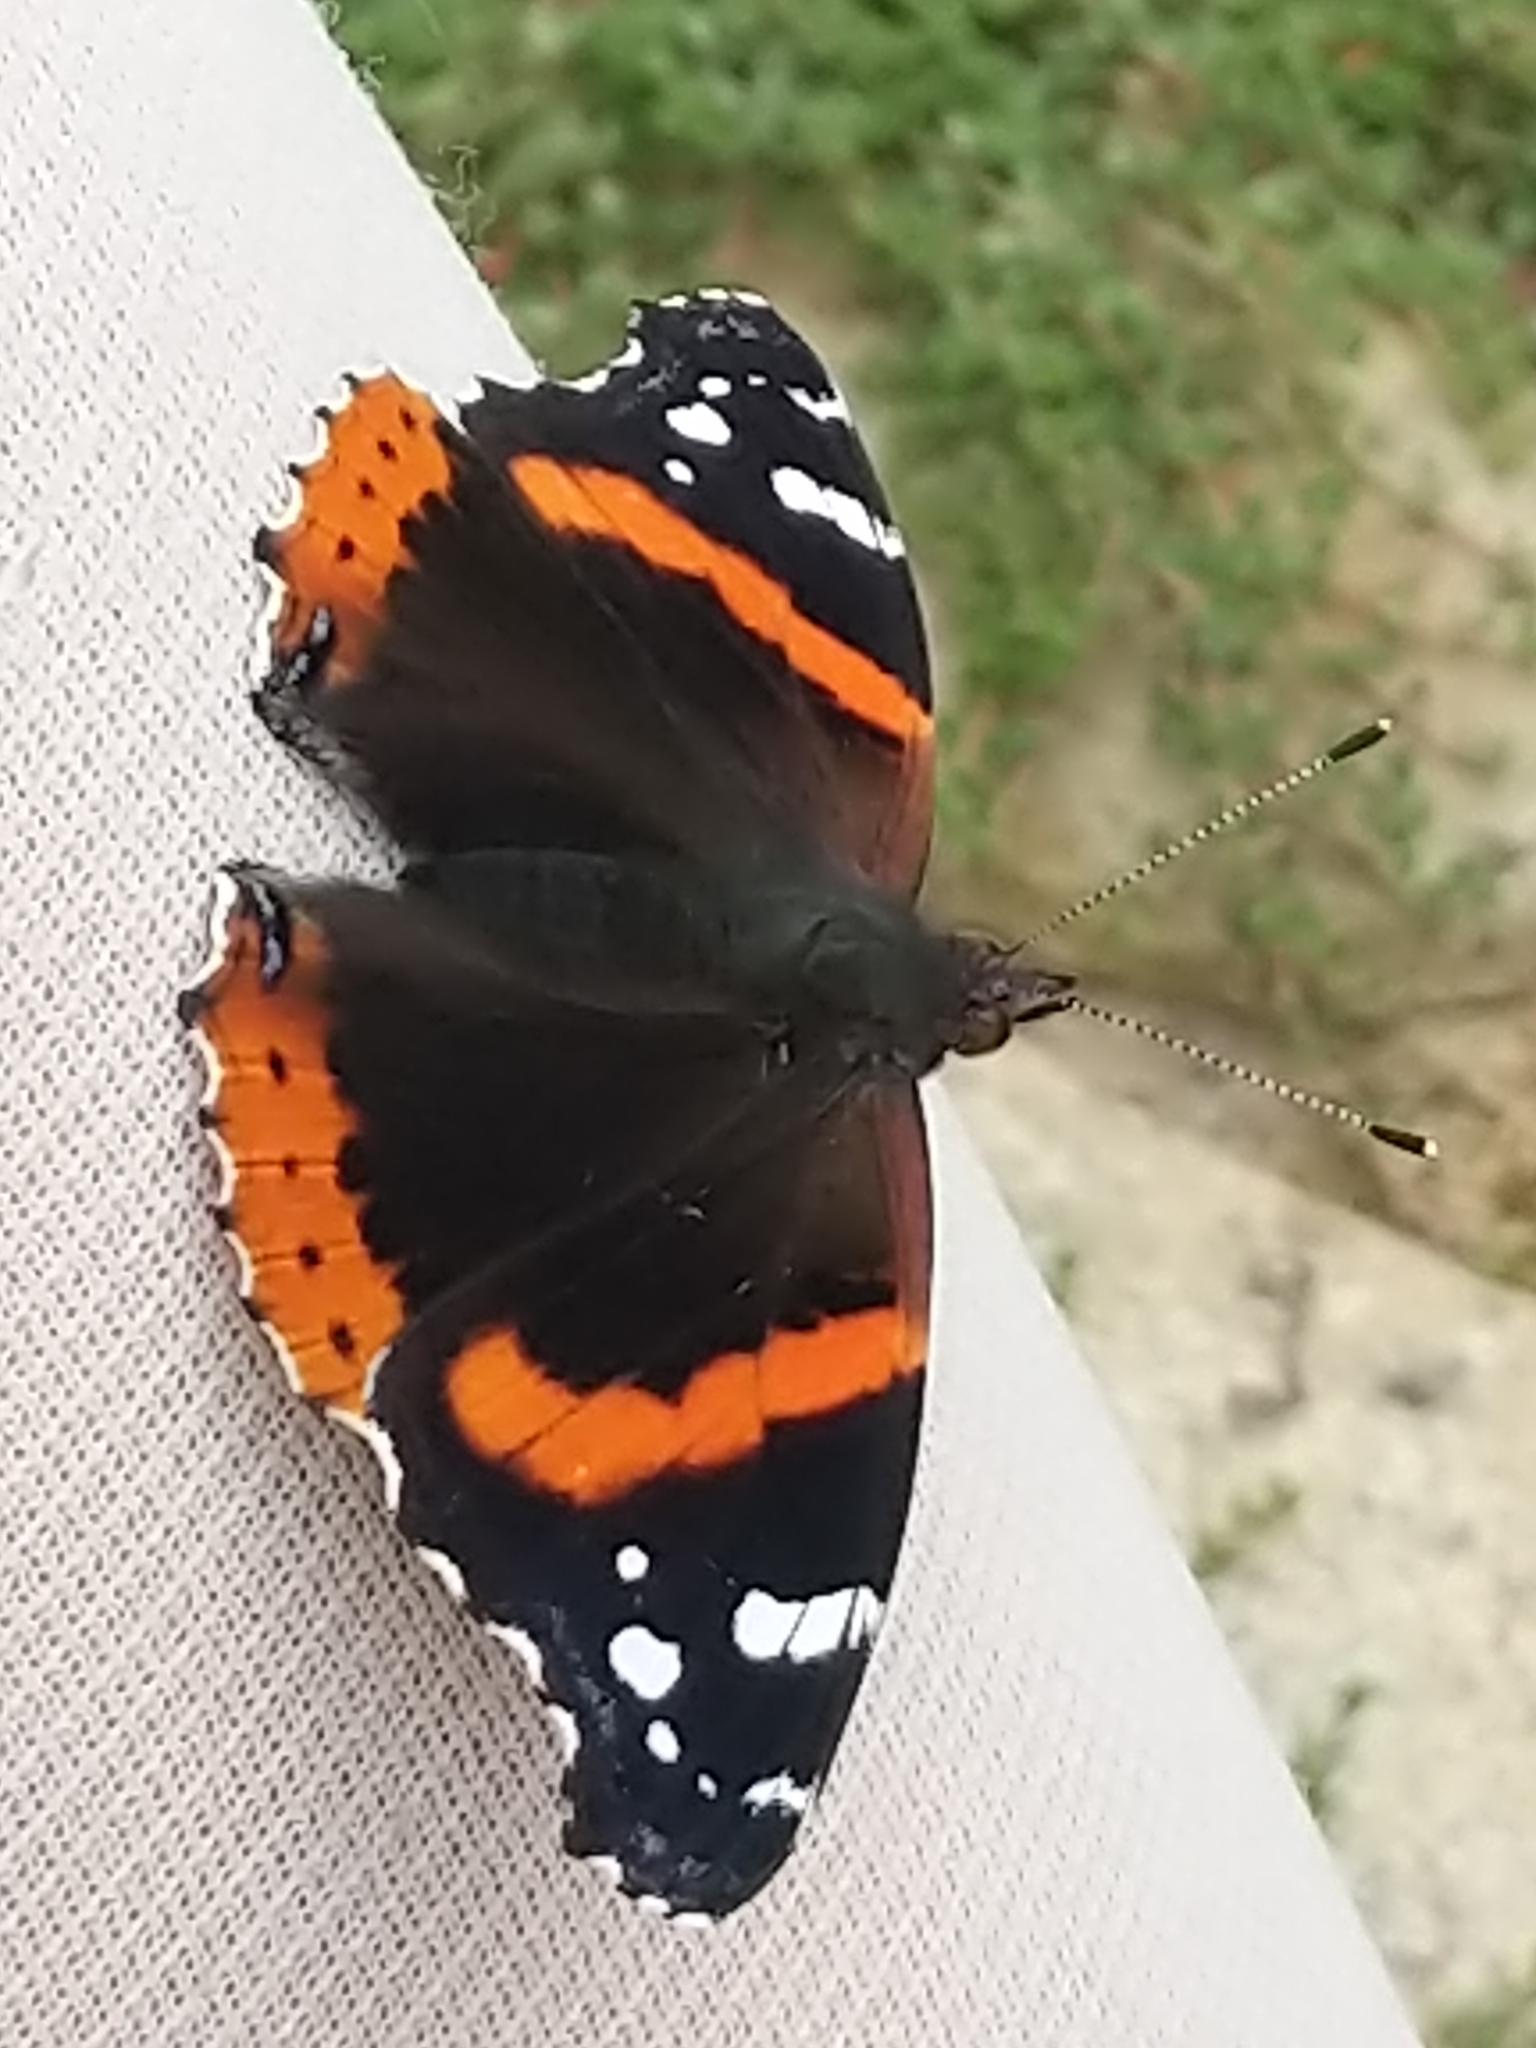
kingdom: Animalia
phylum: Arthropoda
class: Insecta
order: Lepidoptera
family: Nymphalidae
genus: Vanessa
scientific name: Vanessa atalanta
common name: Red admiral
